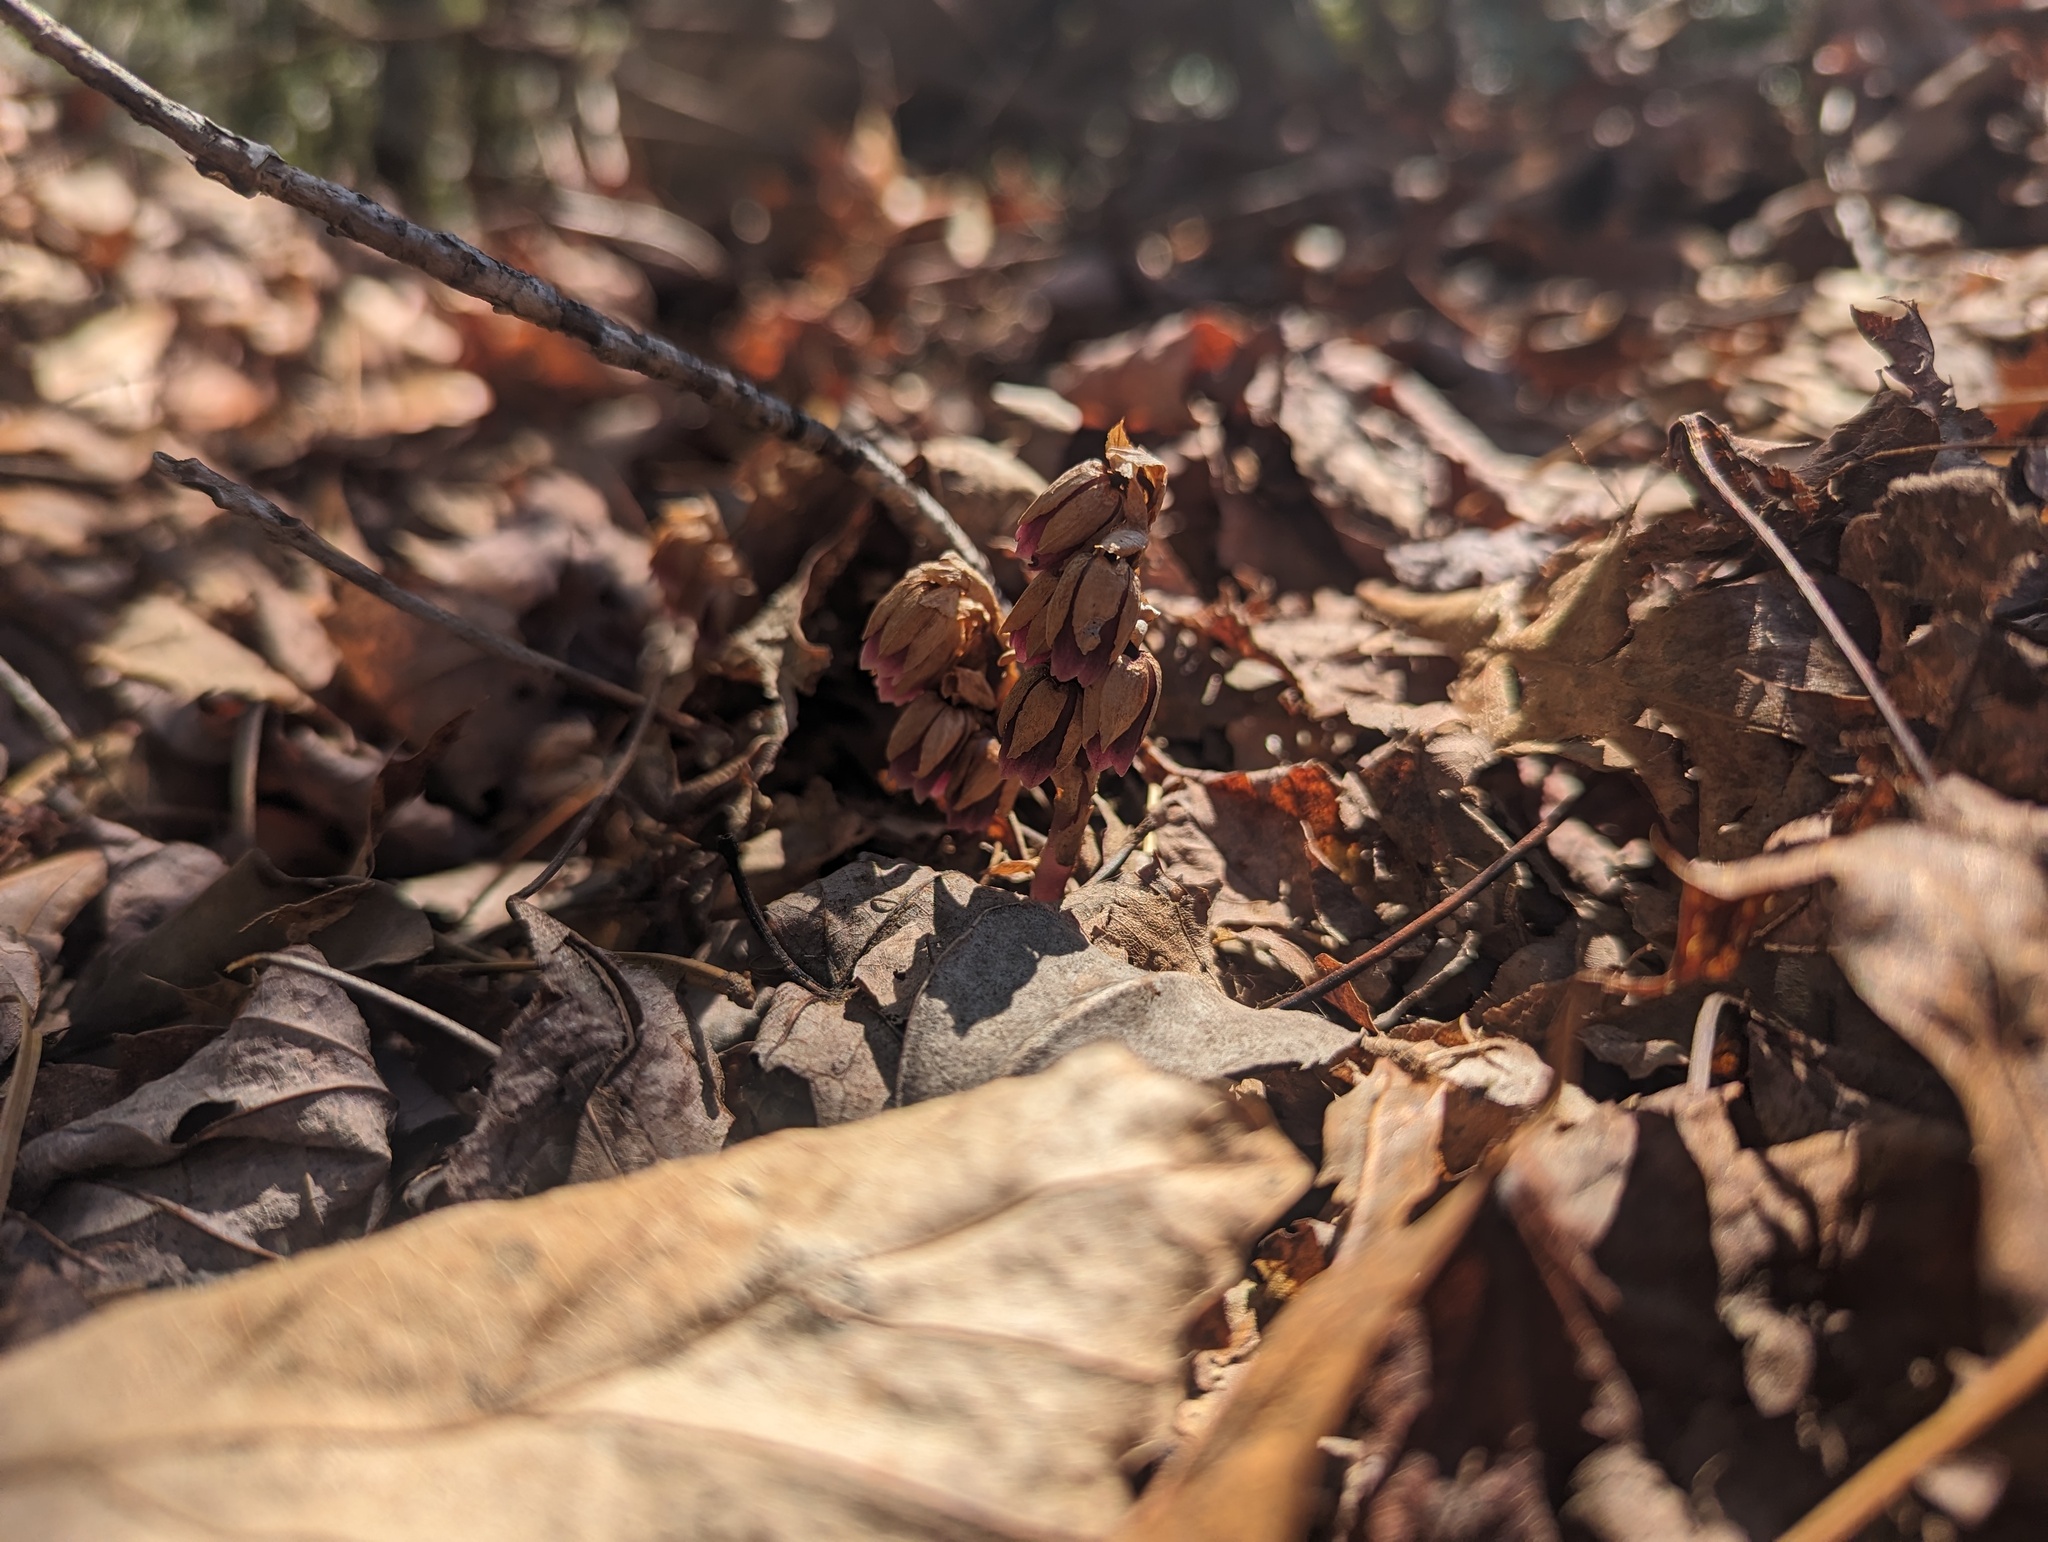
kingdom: Plantae
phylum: Tracheophyta
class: Magnoliopsida
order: Ericales
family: Ericaceae
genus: Monotropsis
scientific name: Monotropsis odorata
